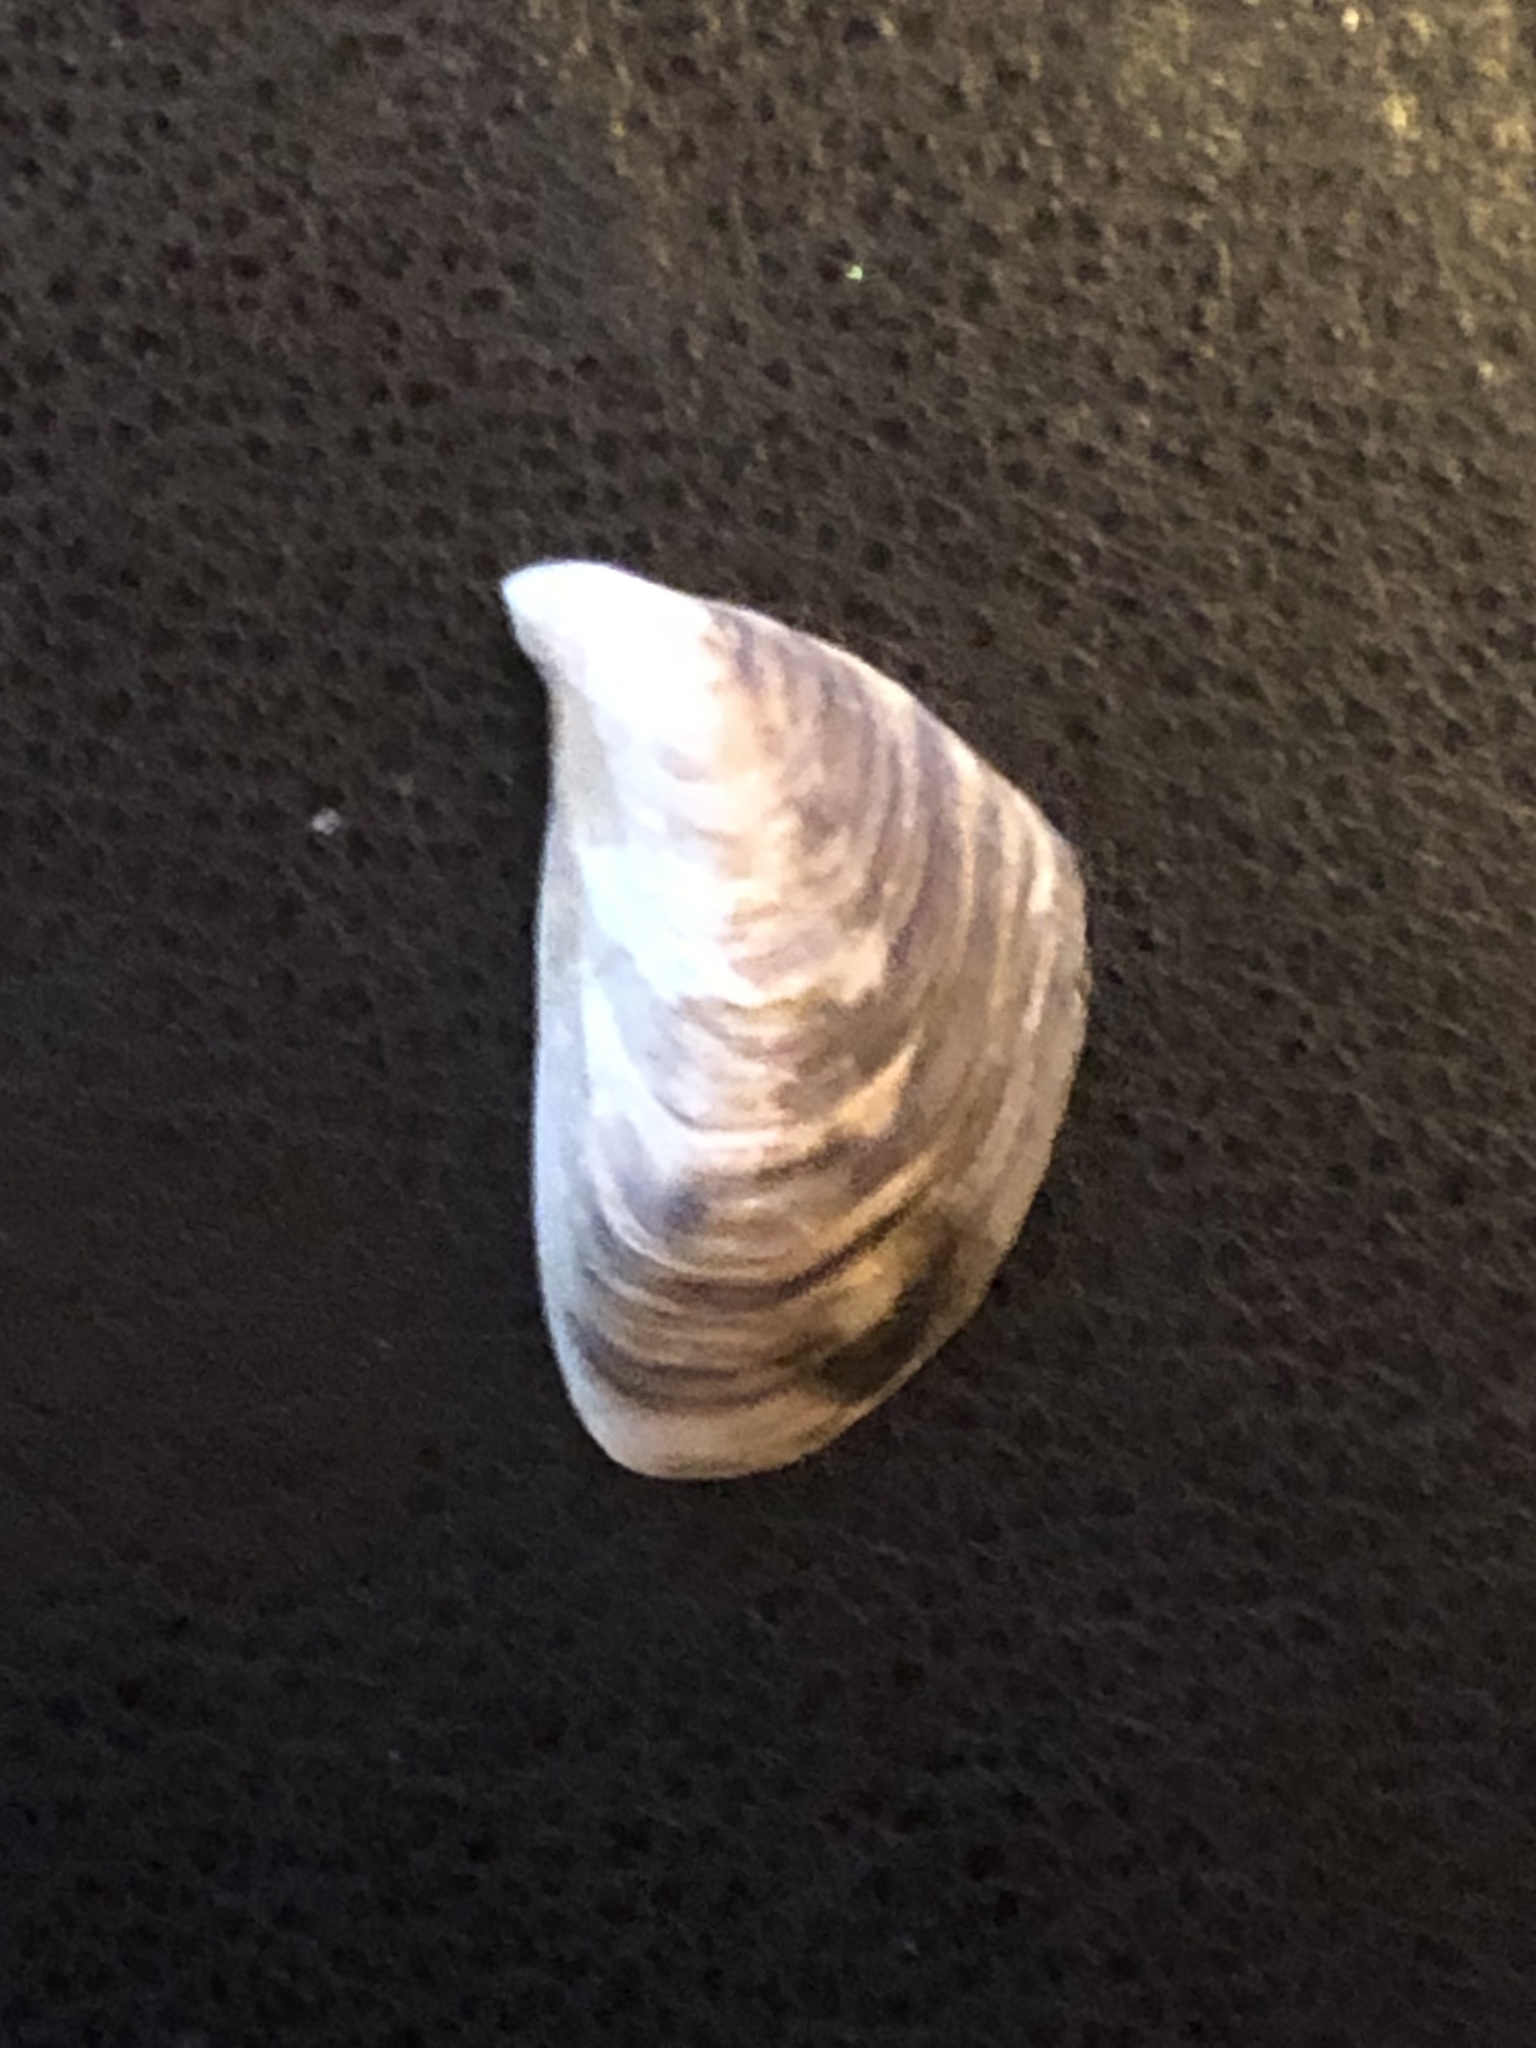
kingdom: Animalia
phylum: Mollusca
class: Bivalvia
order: Myida
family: Dreissenidae
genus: Dreissena
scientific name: Dreissena bugensis
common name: Quagga mussel
